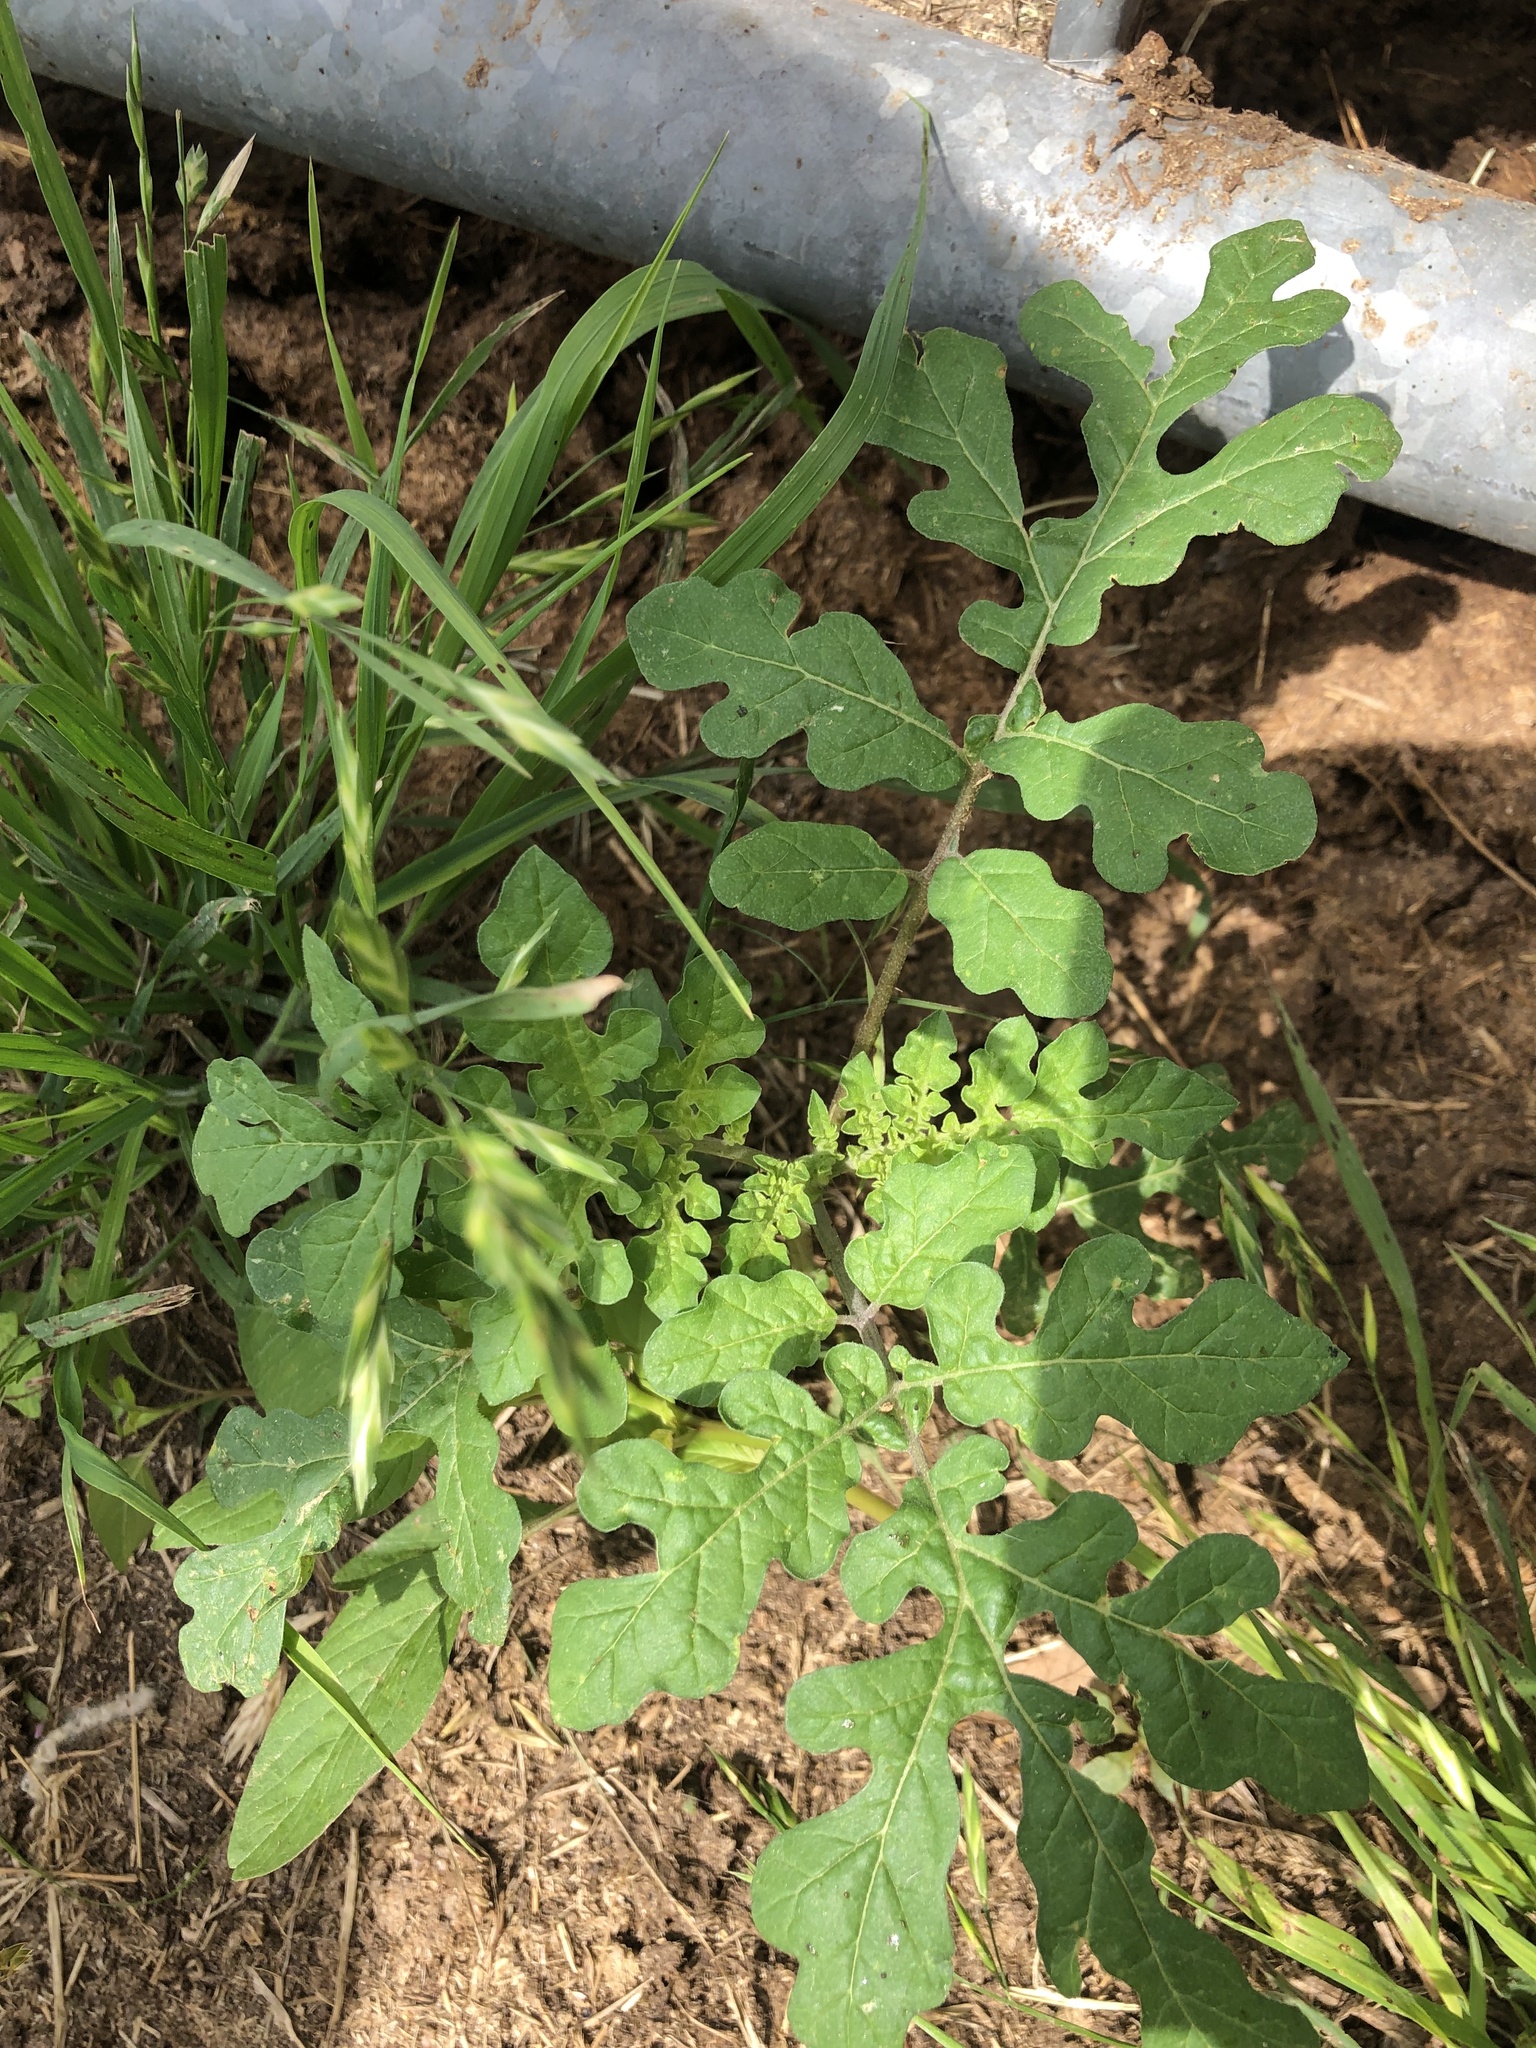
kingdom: Plantae
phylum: Tracheophyta
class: Magnoliopsida
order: Solanales
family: Solanaceae
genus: Solanum
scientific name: Solanum angustifolium
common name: Buffalobur nightshade
